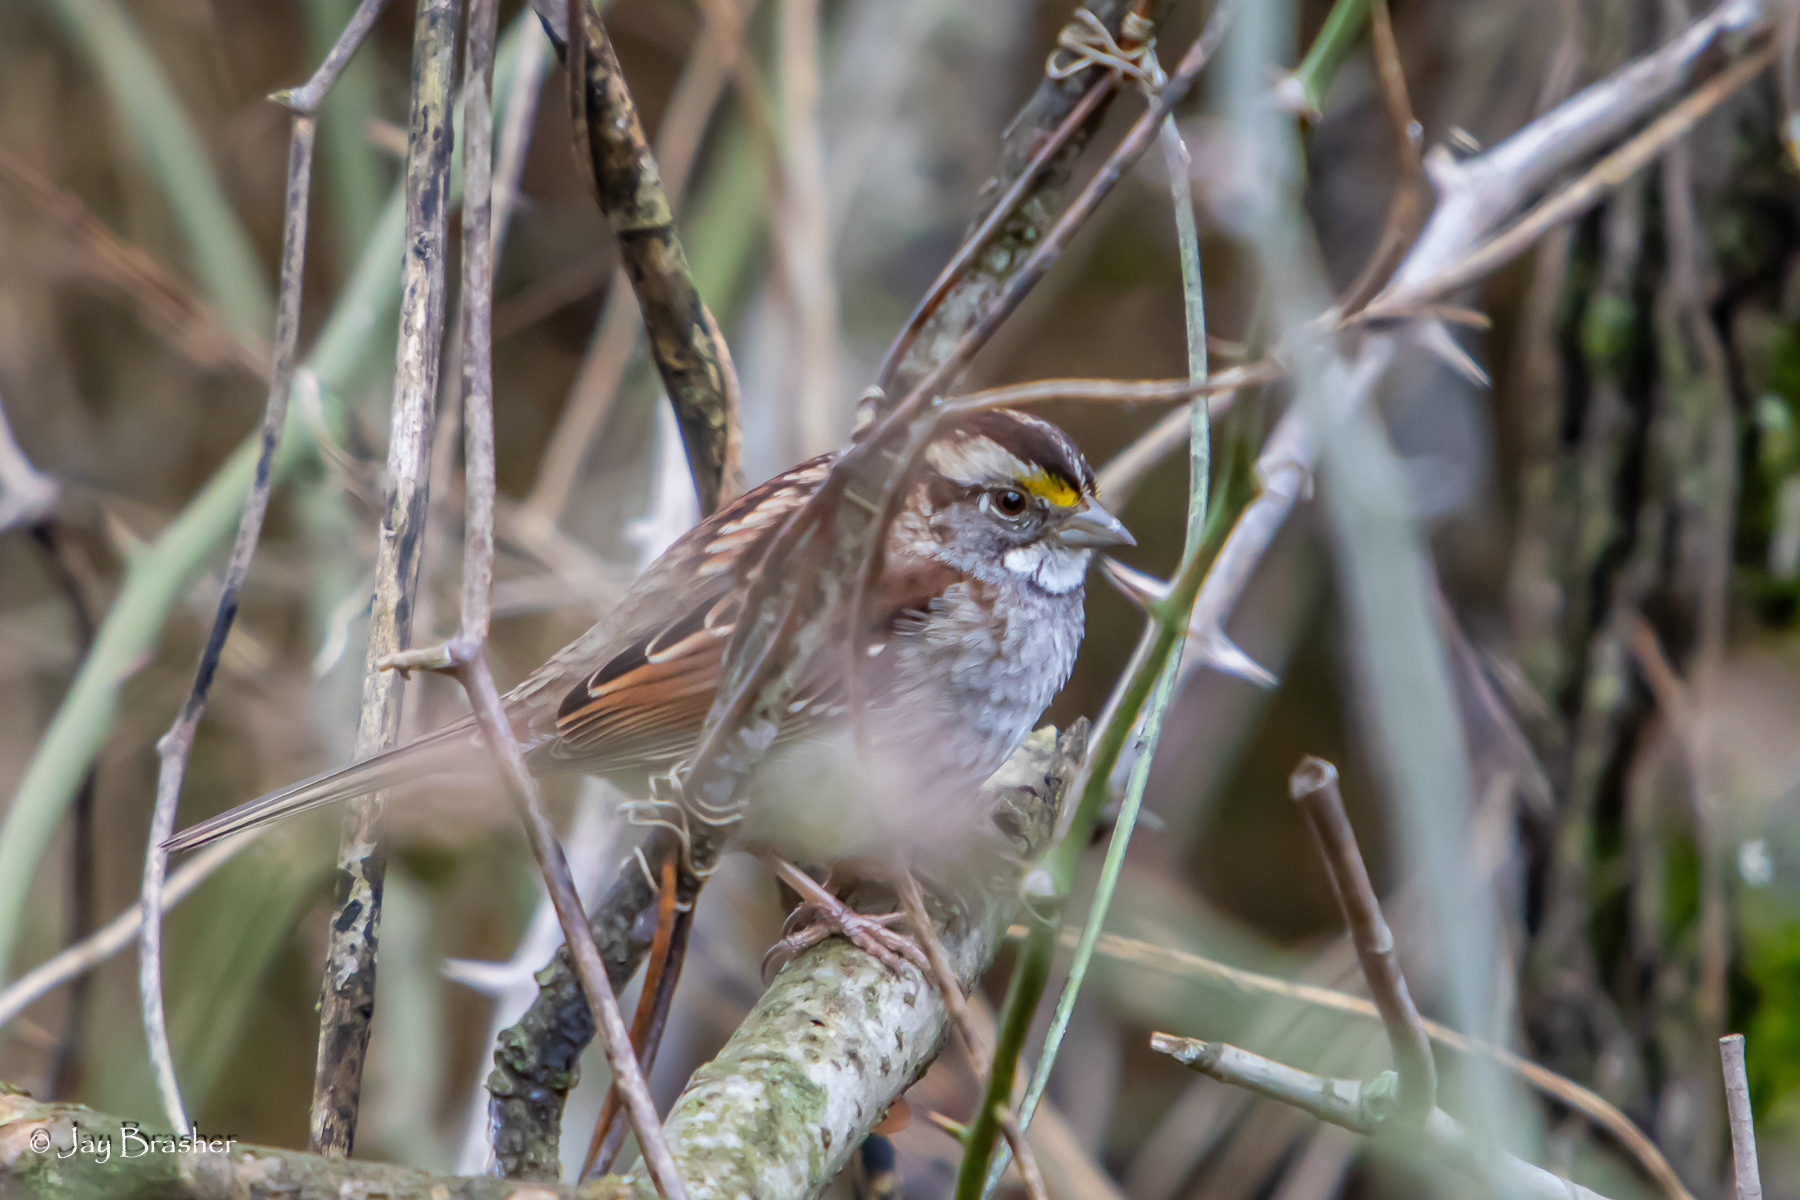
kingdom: Animalia
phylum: Chordata
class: Aves
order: Passeriformes
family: Passerellidae
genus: Zonotrichia
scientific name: Zonotrichia albicollis
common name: White-throated sparrow
